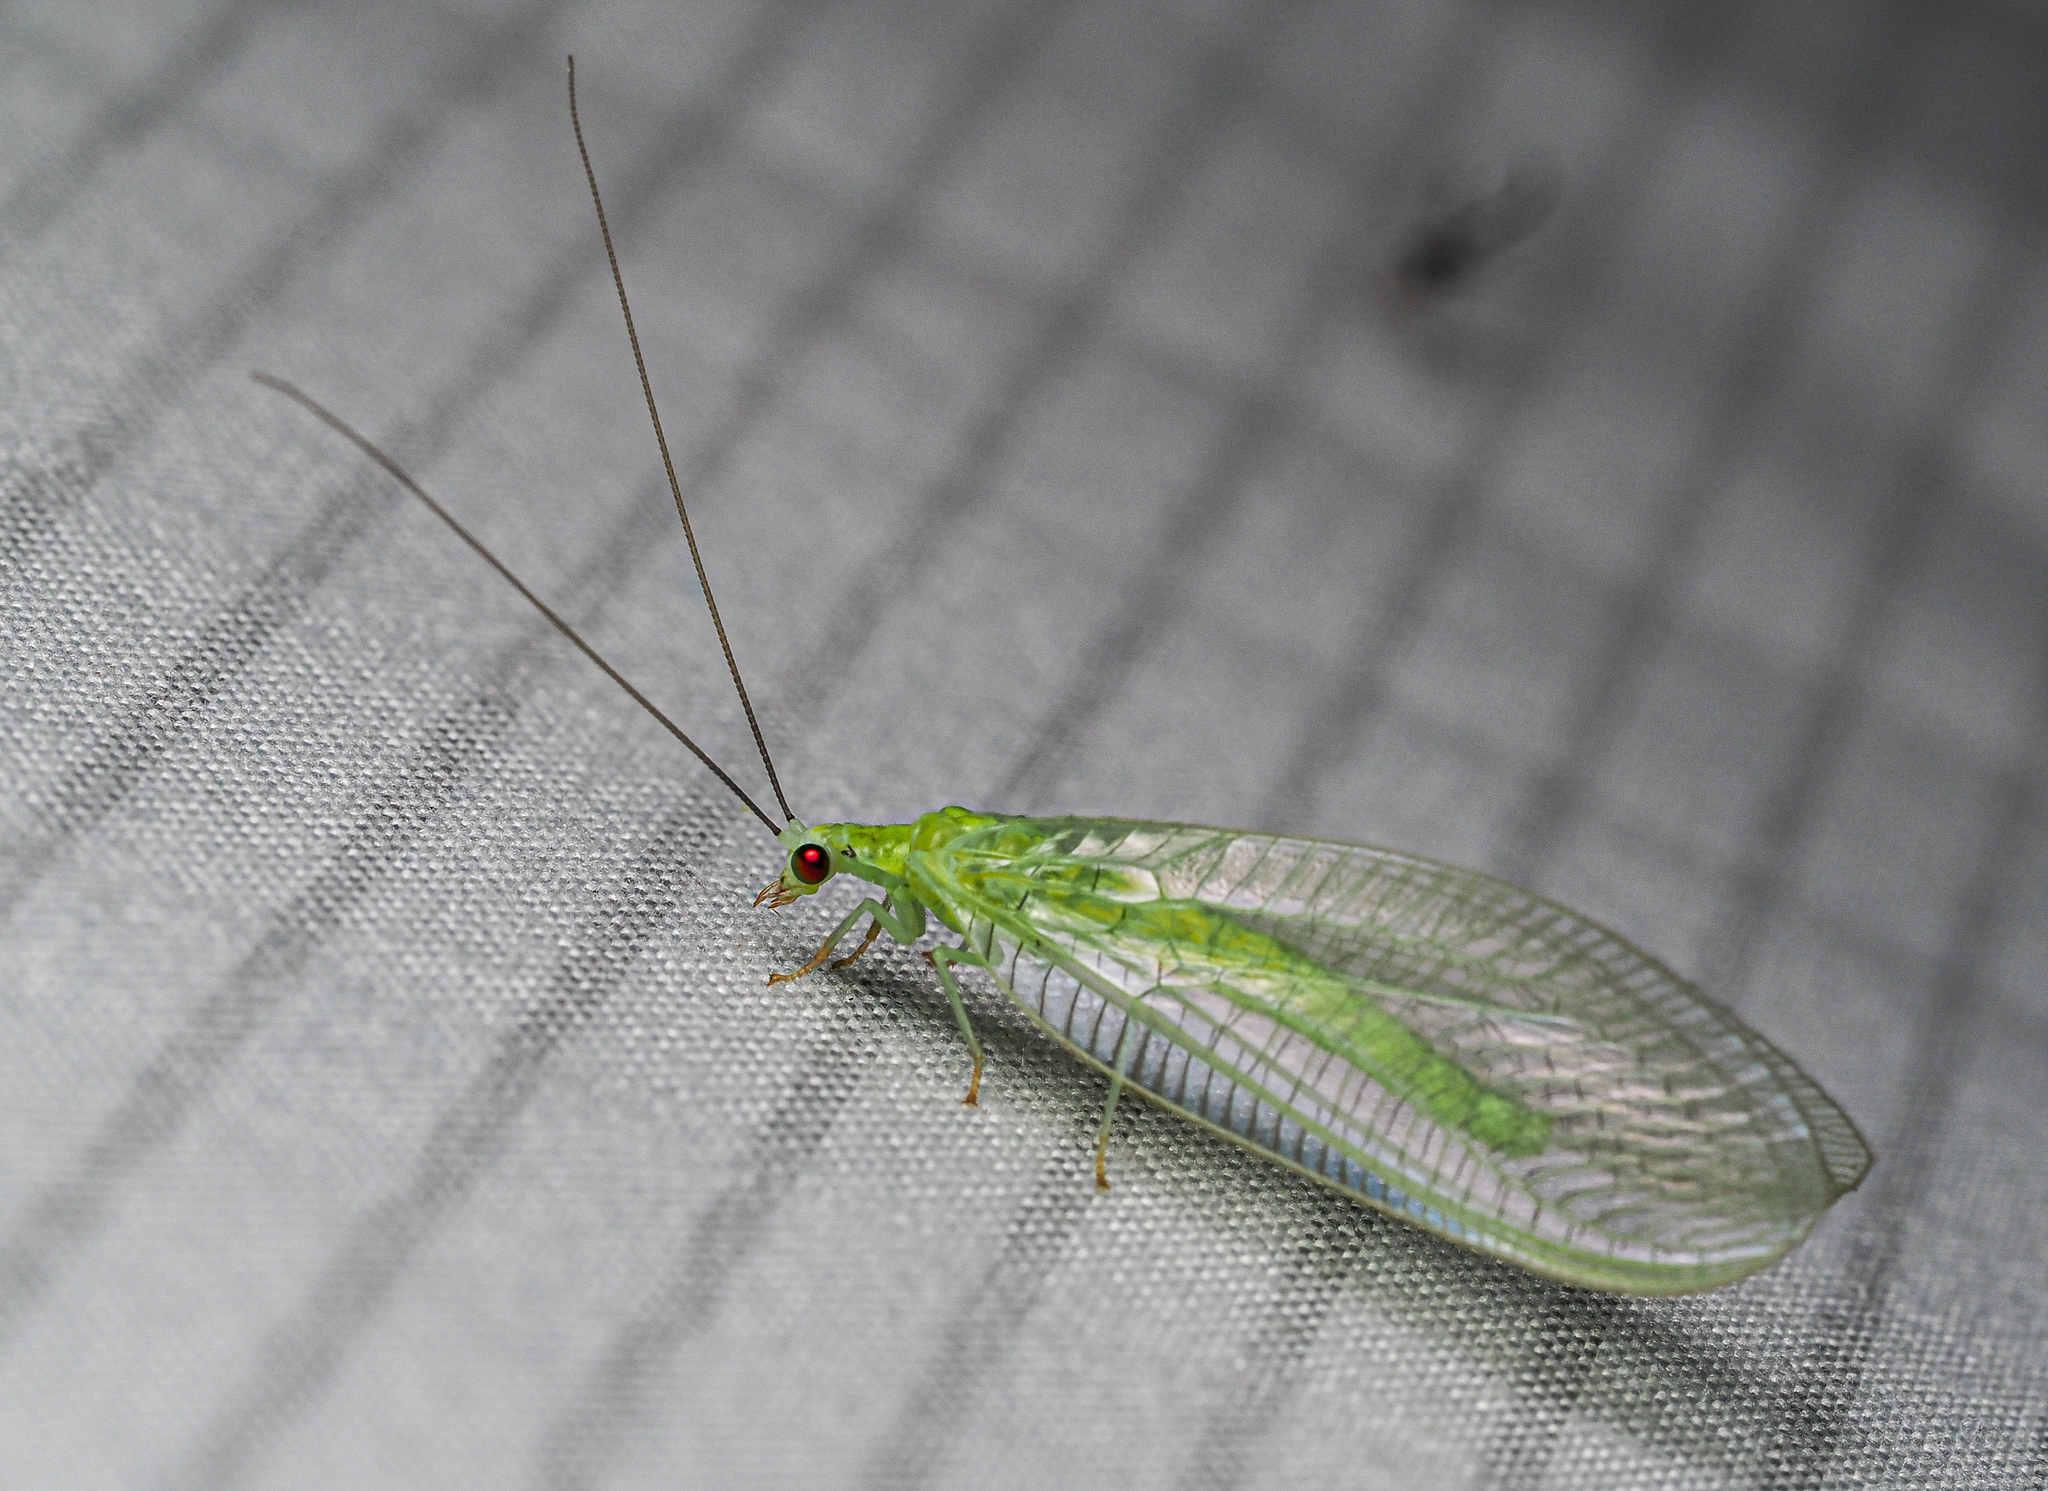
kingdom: Animalia
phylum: Arthropoda
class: Insecta
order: Neuroptera
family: Chrysopidae
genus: Chrysopa
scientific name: Chrysopa nigricornis
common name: Black-horned green lacewing
